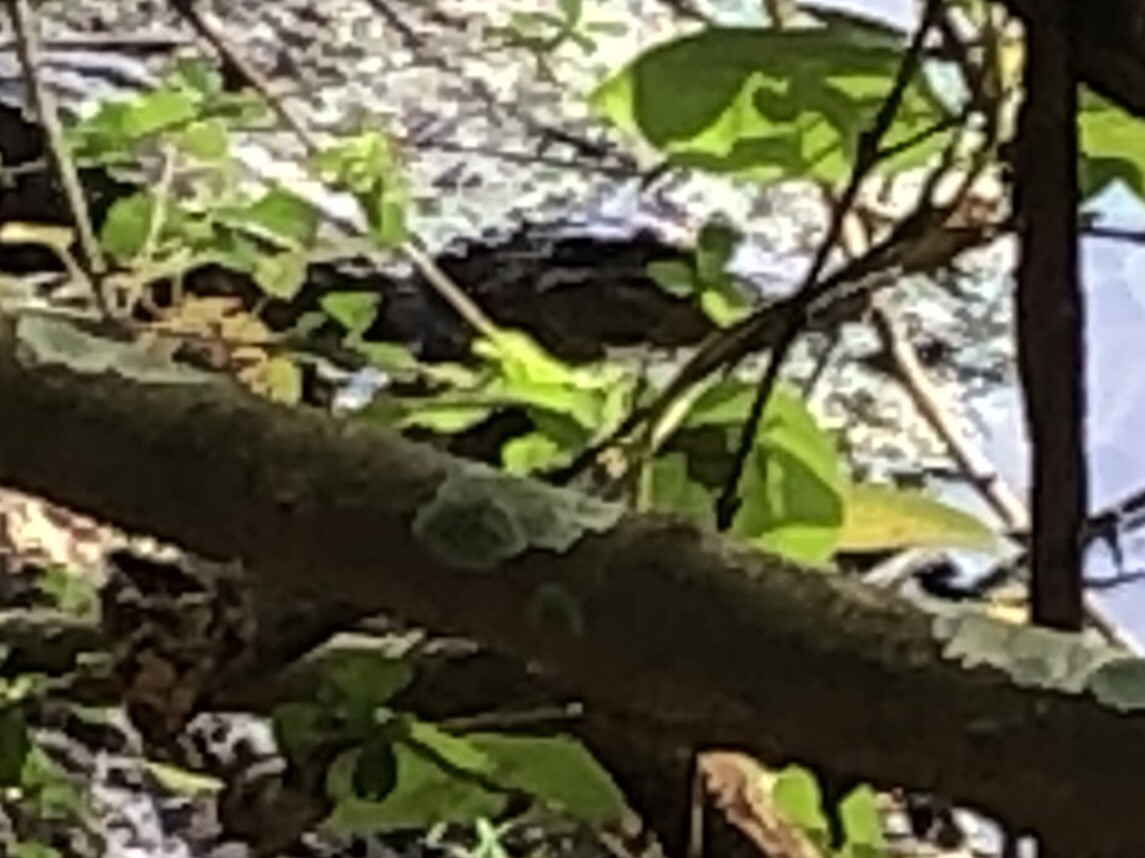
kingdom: Animalia
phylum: Chordata
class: Crocodylia
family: Alligatoridae
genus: Alligator
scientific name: Alligator mississippiensis
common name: American alligator
